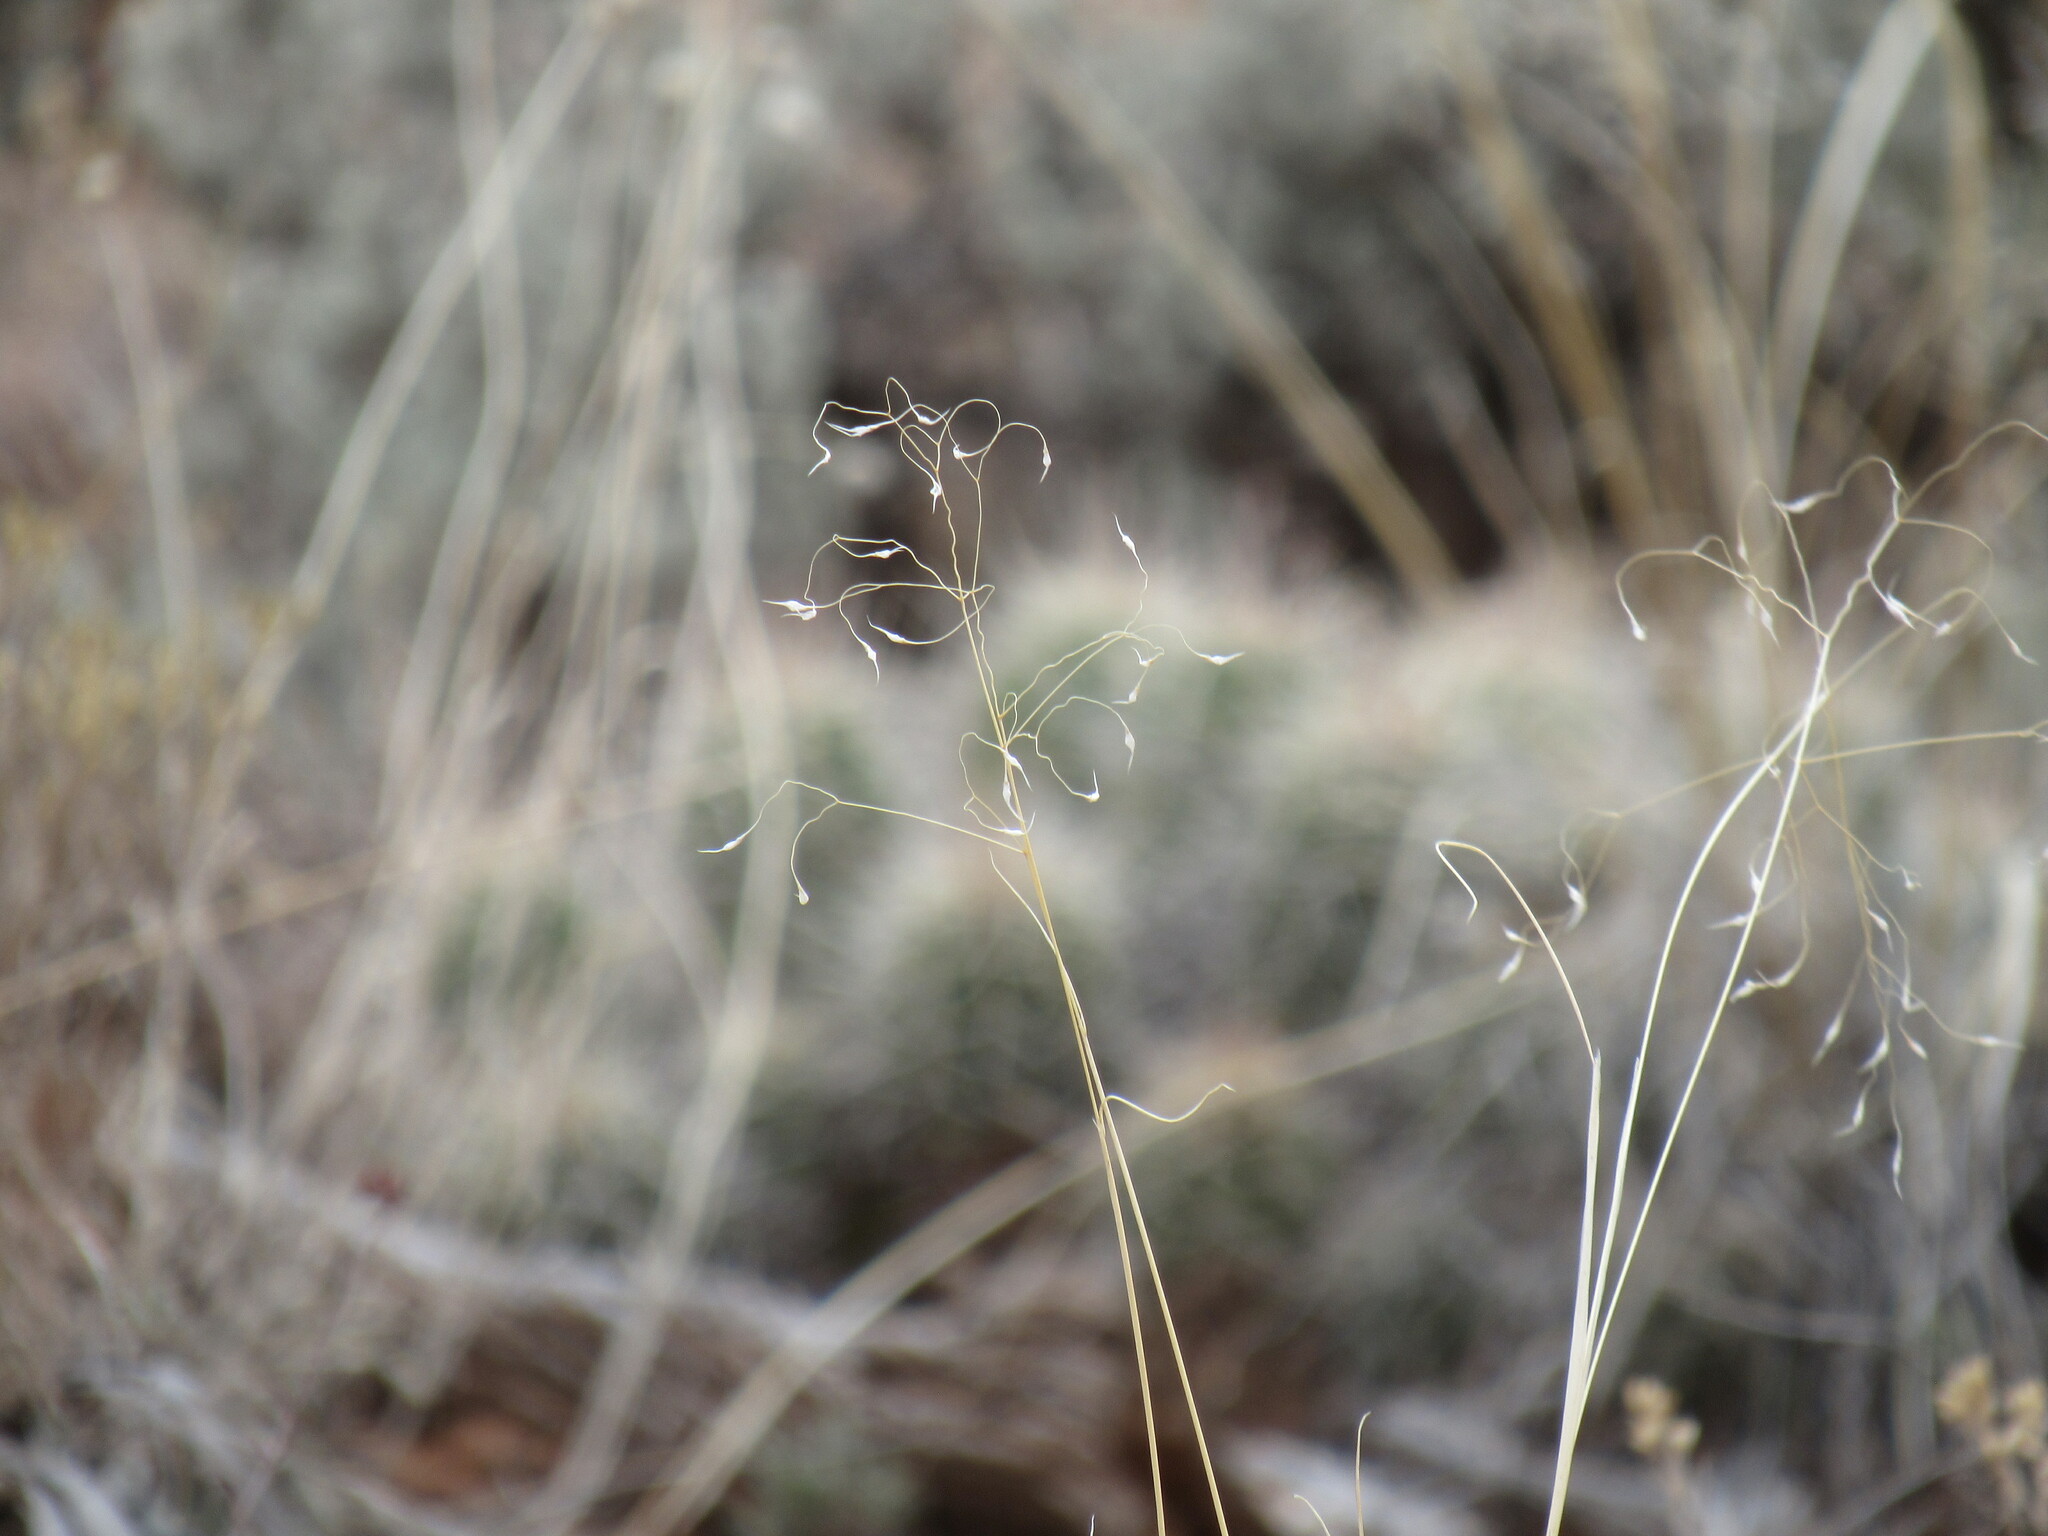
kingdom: Plantae
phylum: Tracheophyta
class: Liliopsida
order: Poales
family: Poaceae
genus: Eriocoma
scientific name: Eriocoma hymenoides
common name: Indian mountain ricegrass
